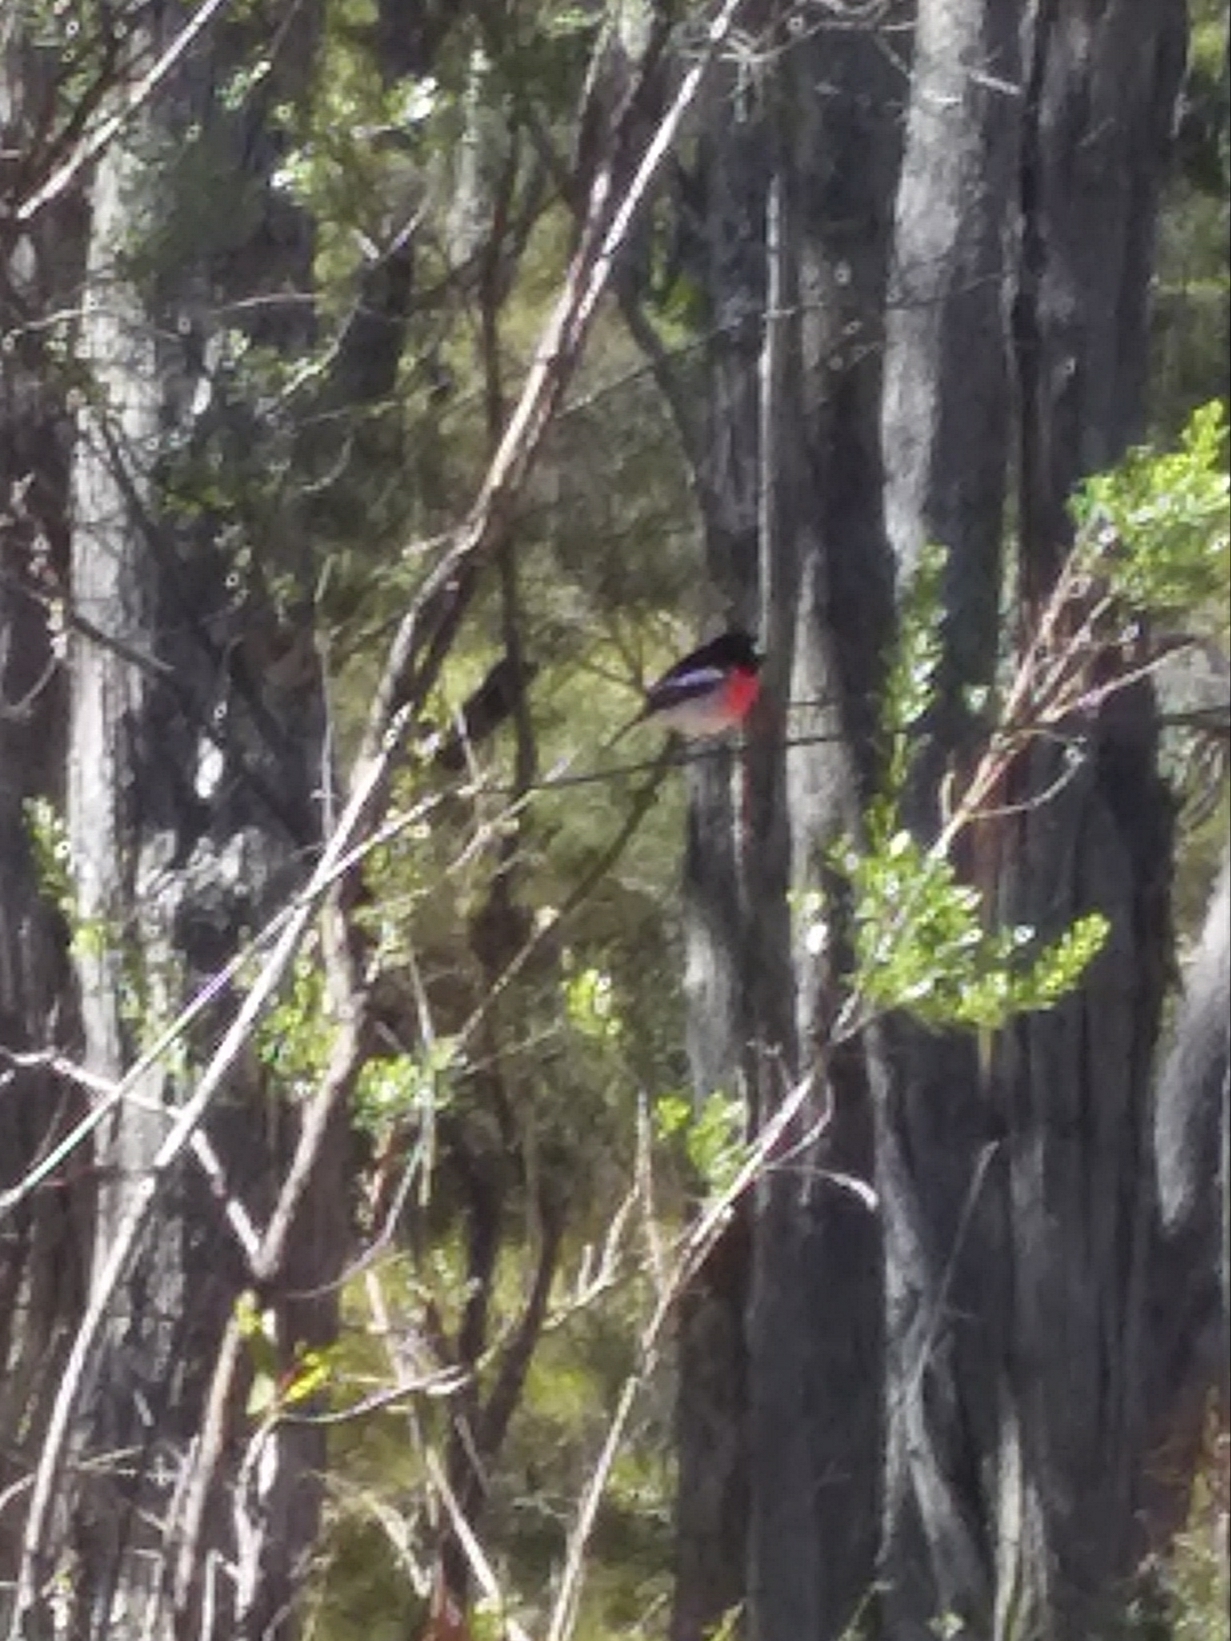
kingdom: Animalia
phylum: Chordata
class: Aves
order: Passeriformes
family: Petroicidae
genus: Petroica
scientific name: Petroica boodang
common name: Scarlet robin
